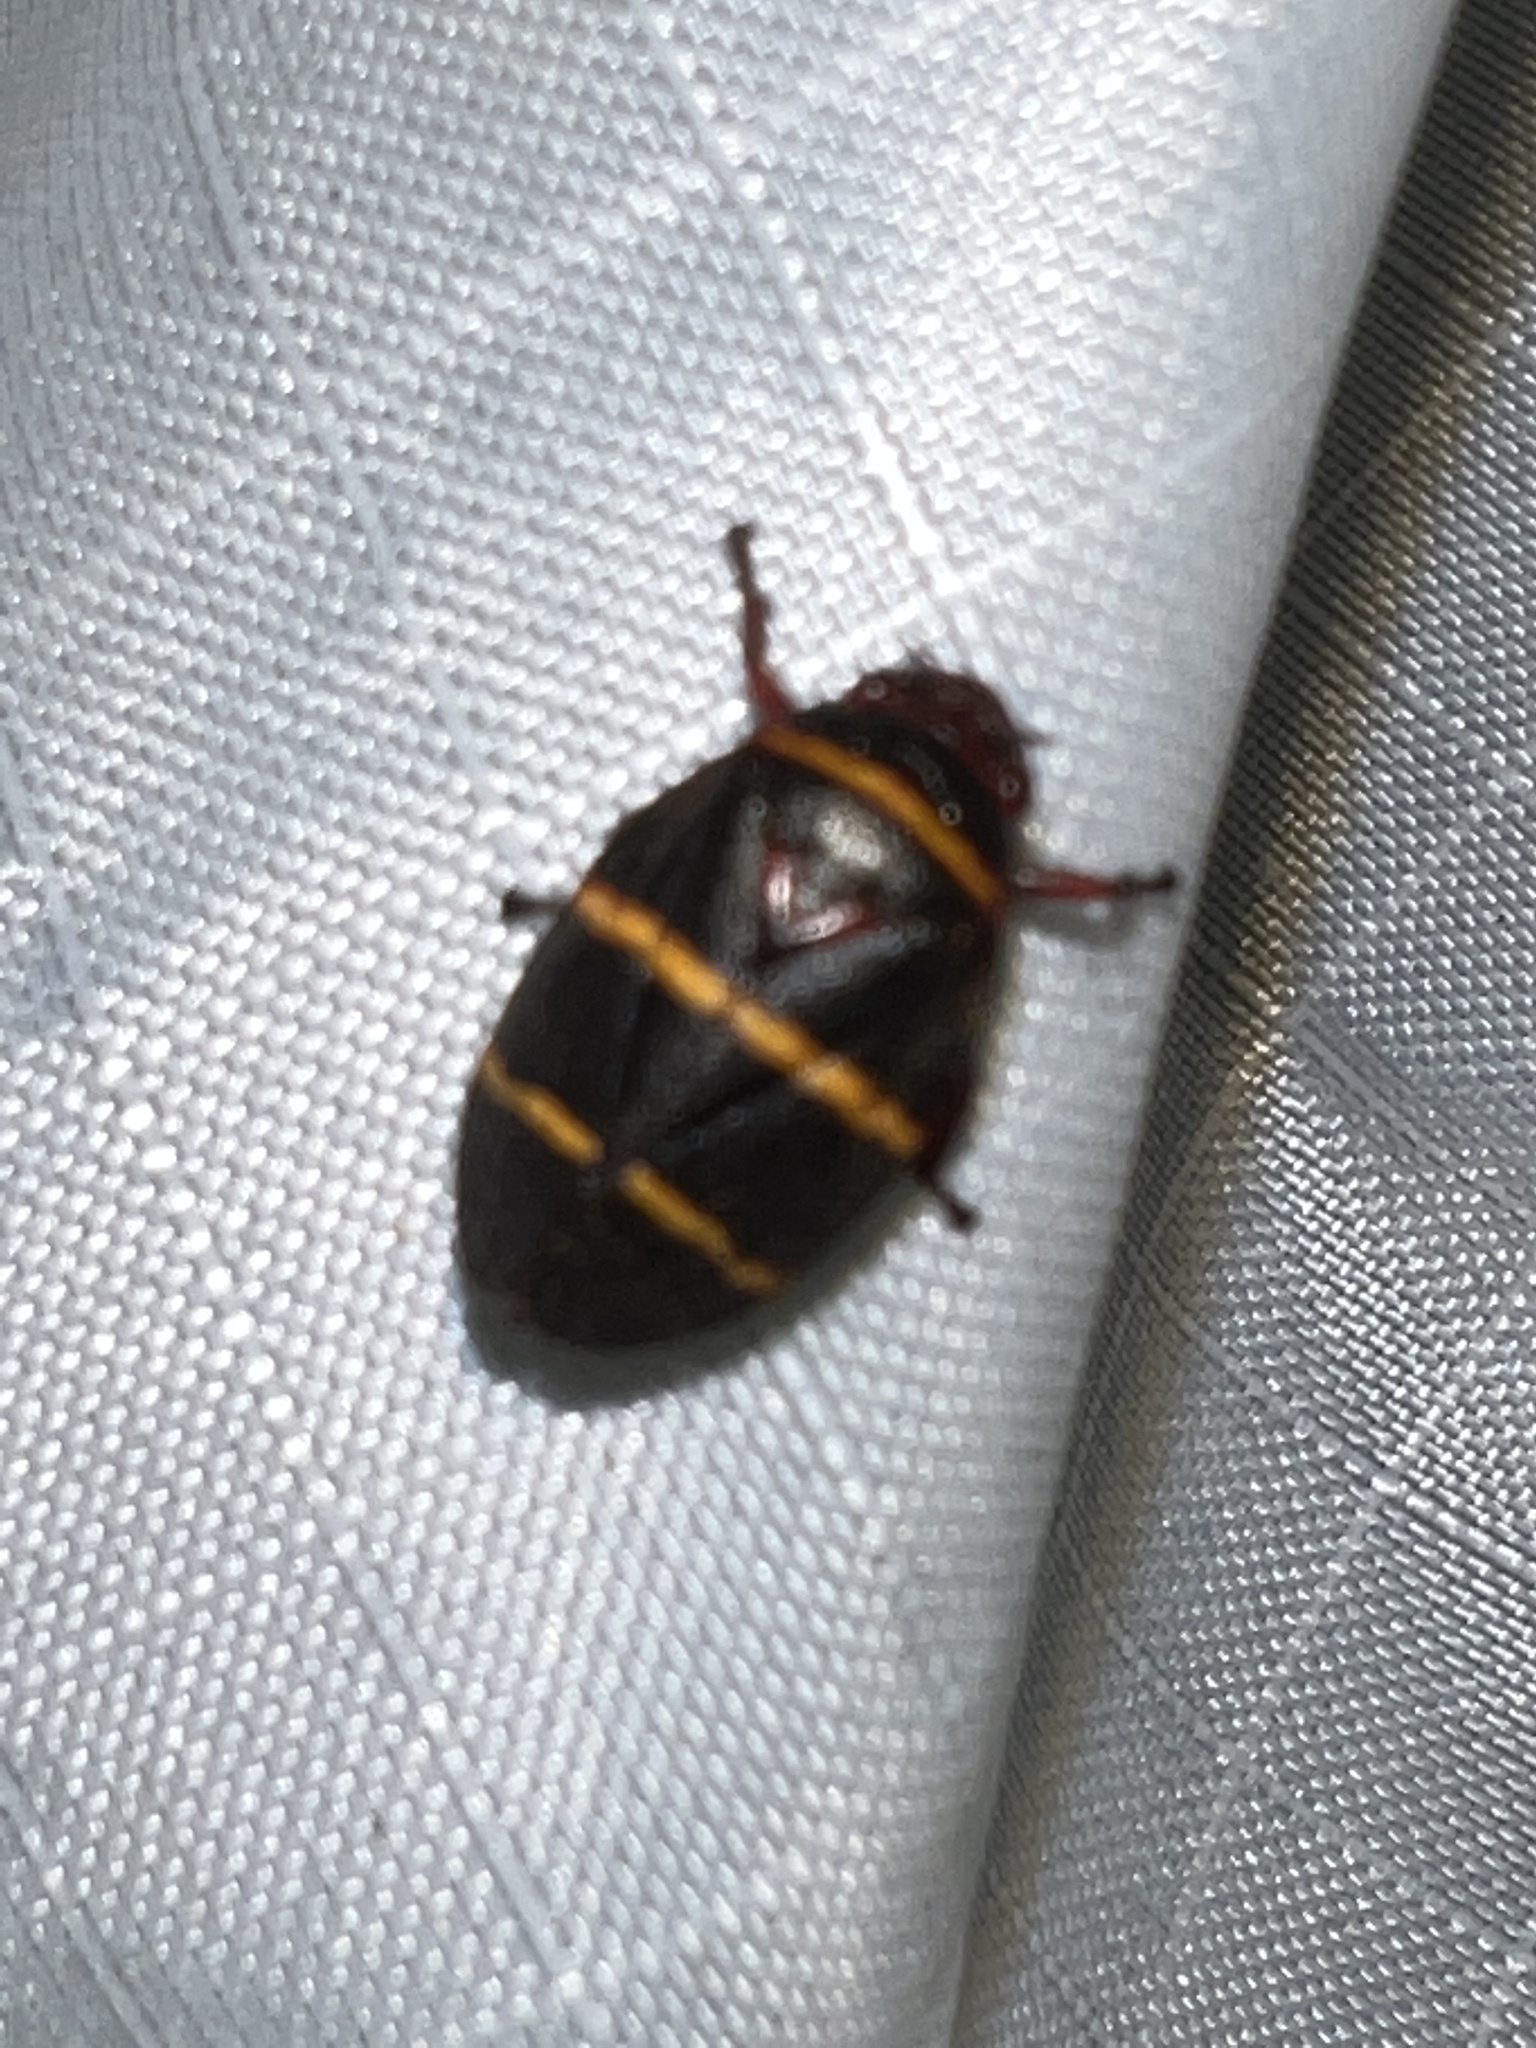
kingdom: Animalia
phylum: Arthropoda
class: Insecta
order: Hemiptera
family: Cercopidae
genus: Prosapia
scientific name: Prosapia bicincta
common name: Twolined spittlebug
